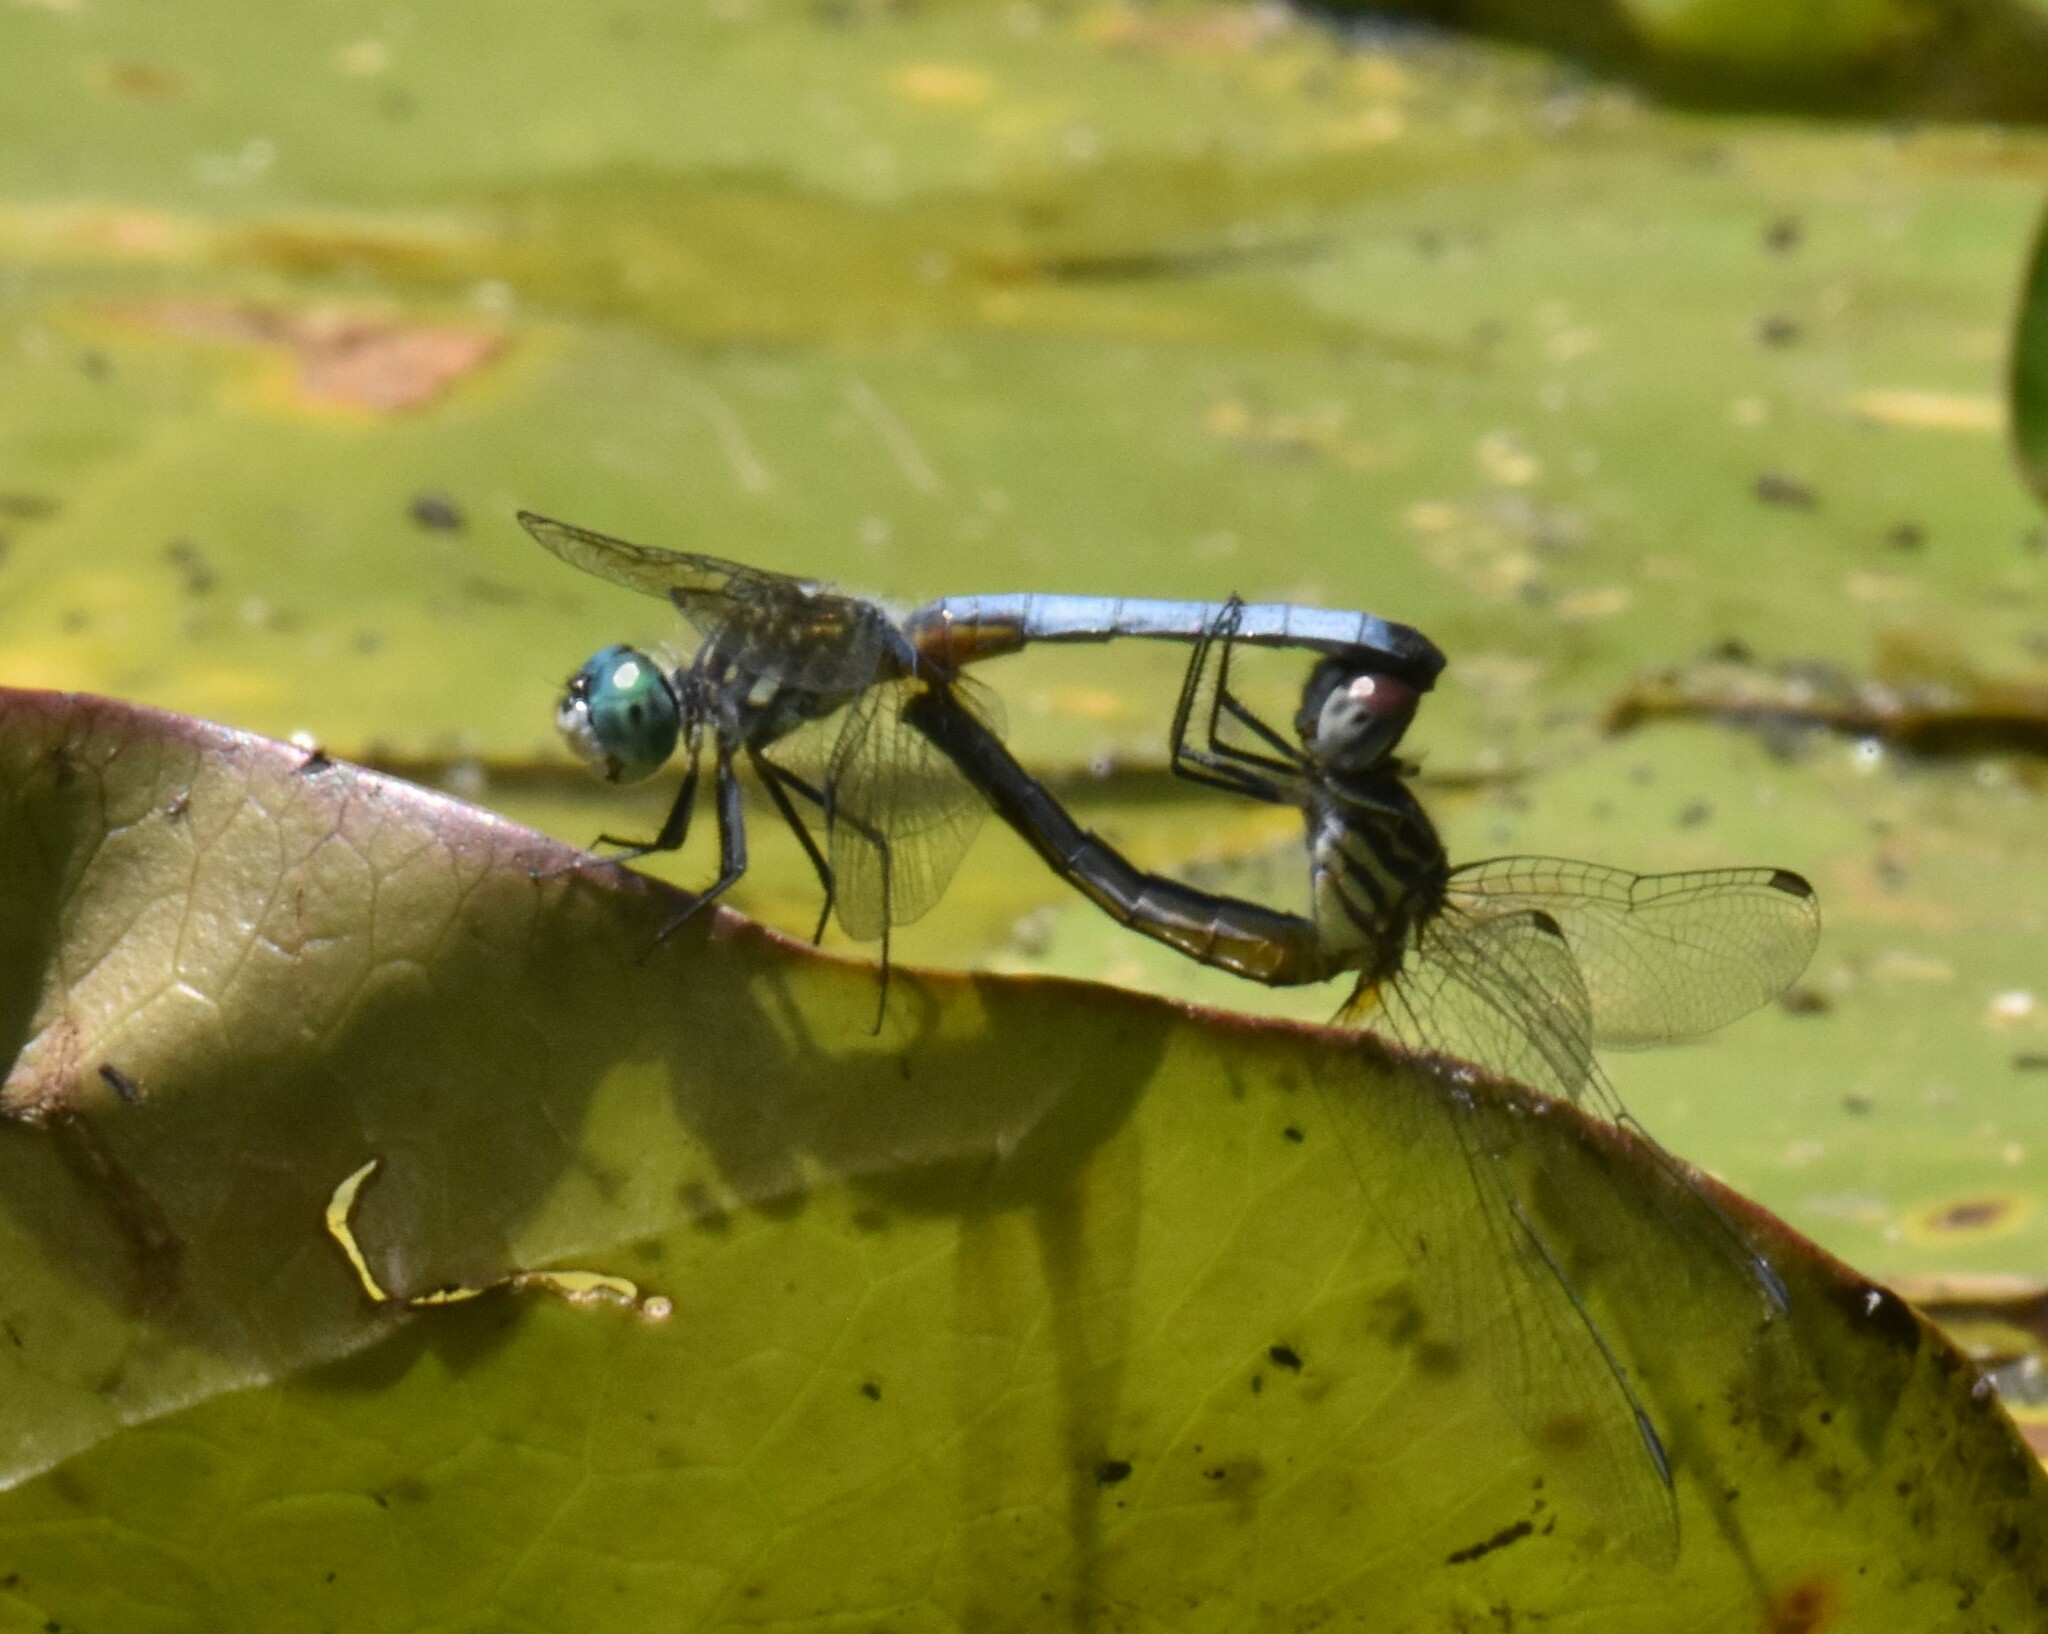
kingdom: Animalia
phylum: Arthropoda
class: Insecta
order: Odonata
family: Libellulidae
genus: Pachydiplax
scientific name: Pachydiplax longipennis
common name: Blue dasher
